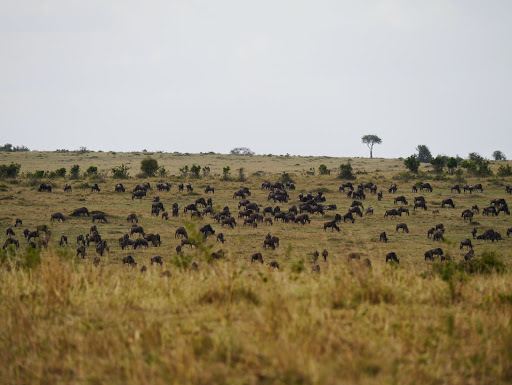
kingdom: Animalia
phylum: Chordata
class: Mammalia
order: Artiodactyla
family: Bovidae
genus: Connochaetes
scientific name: Connochaetes taurinus
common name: Blue wildebeest
